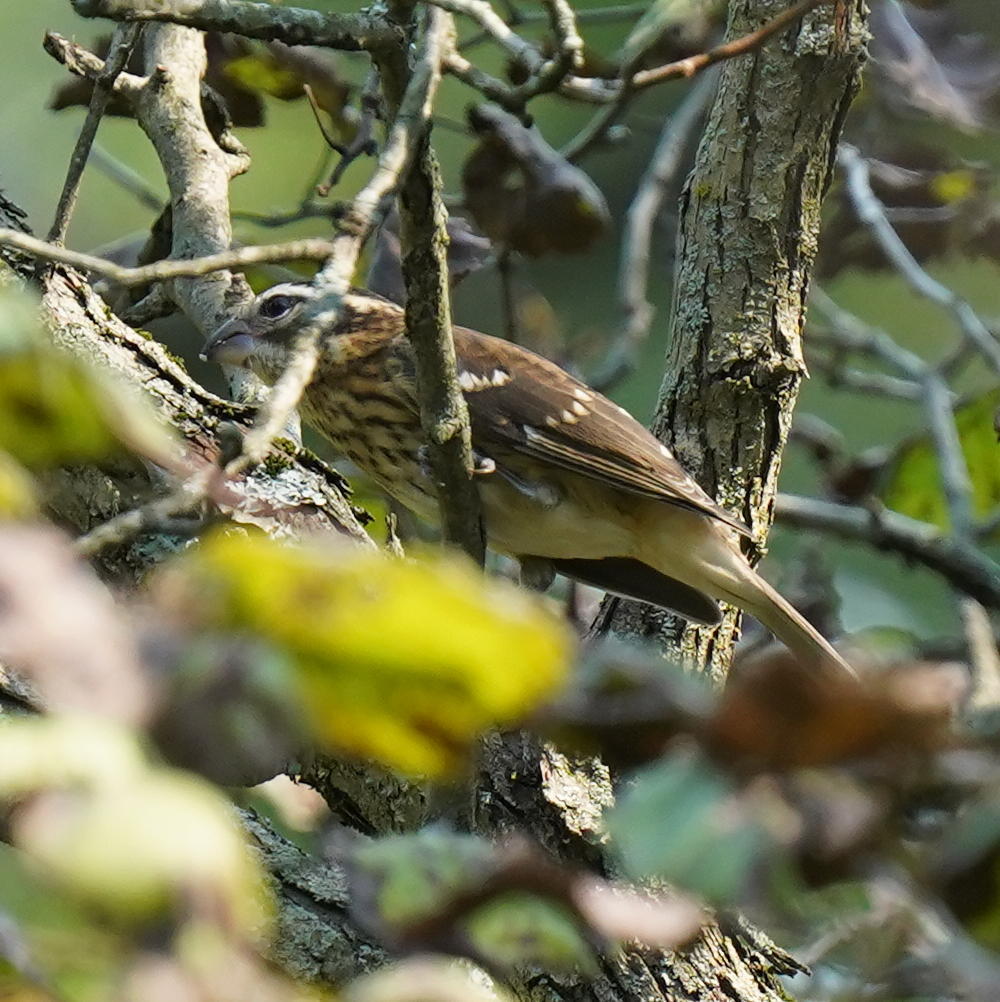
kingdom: Animalia
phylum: Chordata
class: Aves
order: Passeriformes
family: Cardinalidae
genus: Pheucticus
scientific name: Pheucticus ludovicianus
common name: Rose-breasted grosbeak
